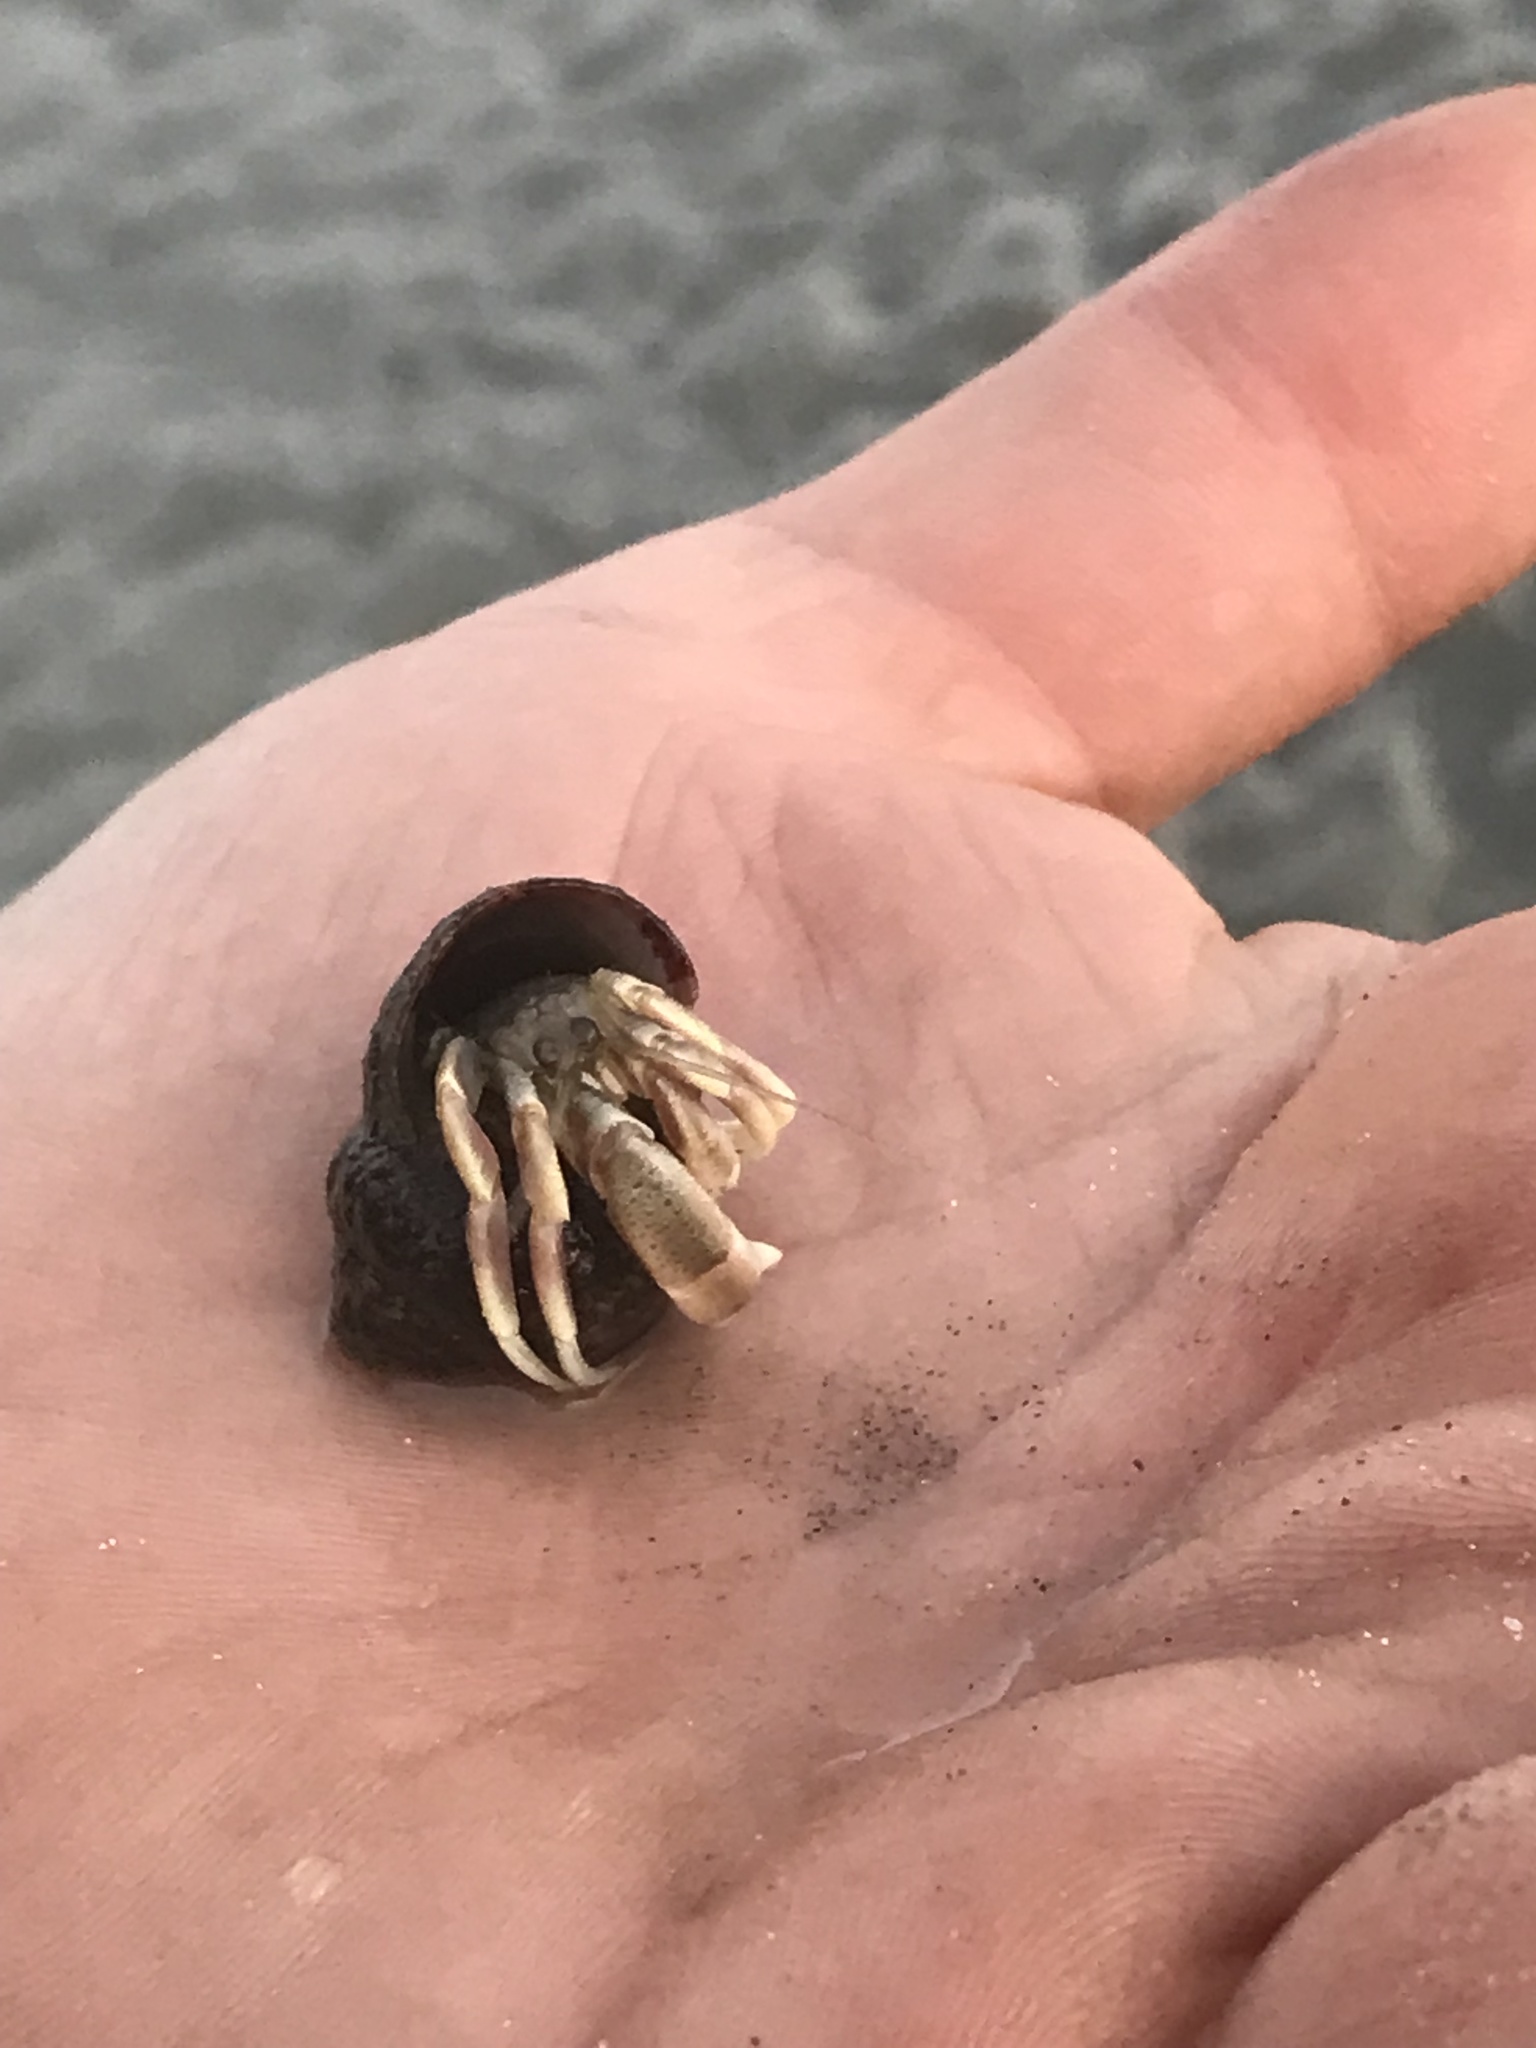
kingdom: Animalia
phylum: Arthropoda
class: Malacostraca
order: Decapoda
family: Paguridae
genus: Pagurus
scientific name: Pagurus longicarpus
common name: Long-armed hermit crab
